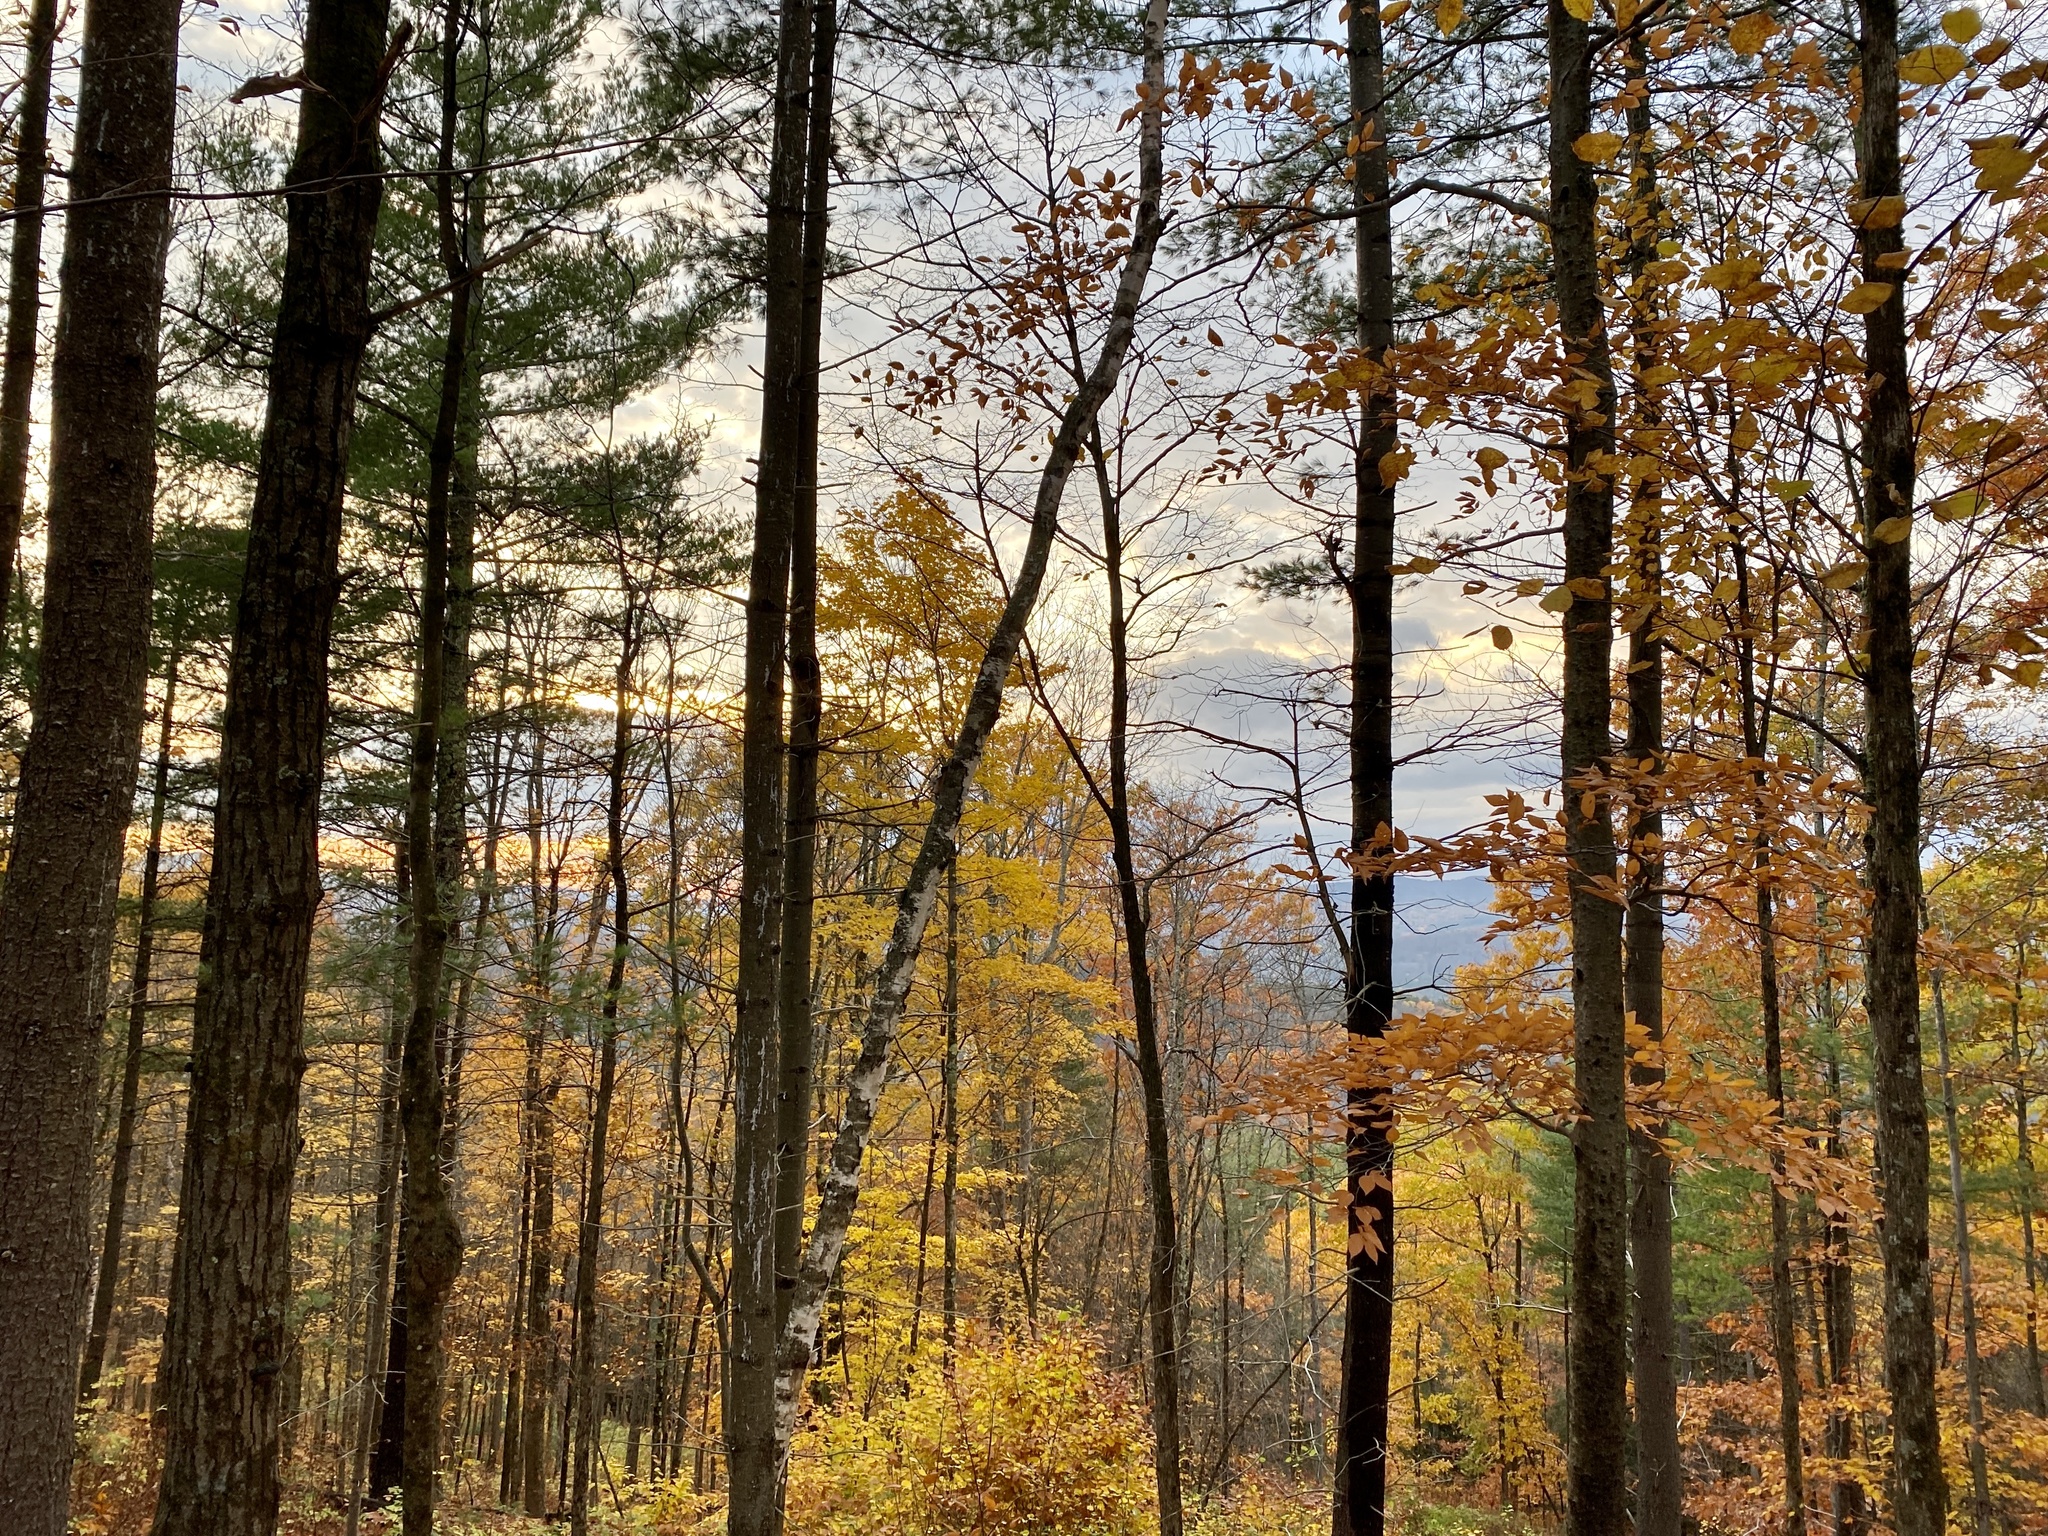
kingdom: Plantae
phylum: Tracheophyta
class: Pinopsida
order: Pinales
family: Pinaceae
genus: Pinus
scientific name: Pinus strobus
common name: Weymouth pine
